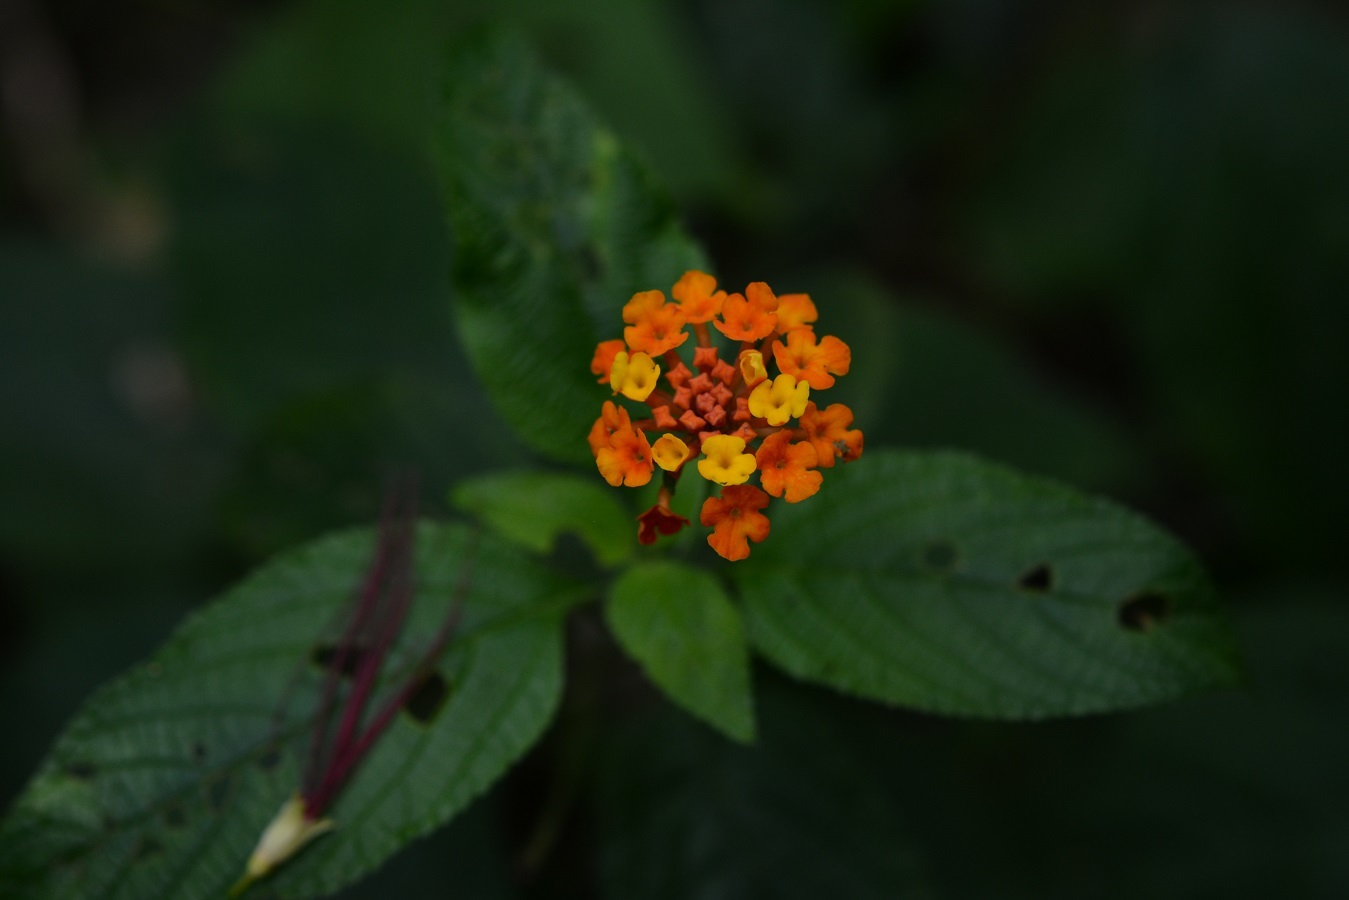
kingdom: Plantae
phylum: Tracheophyta
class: Magnoliopsida
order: Lamiales
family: Verbenaceae
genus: Lantana
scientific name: Lantana camara
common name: Lantana
